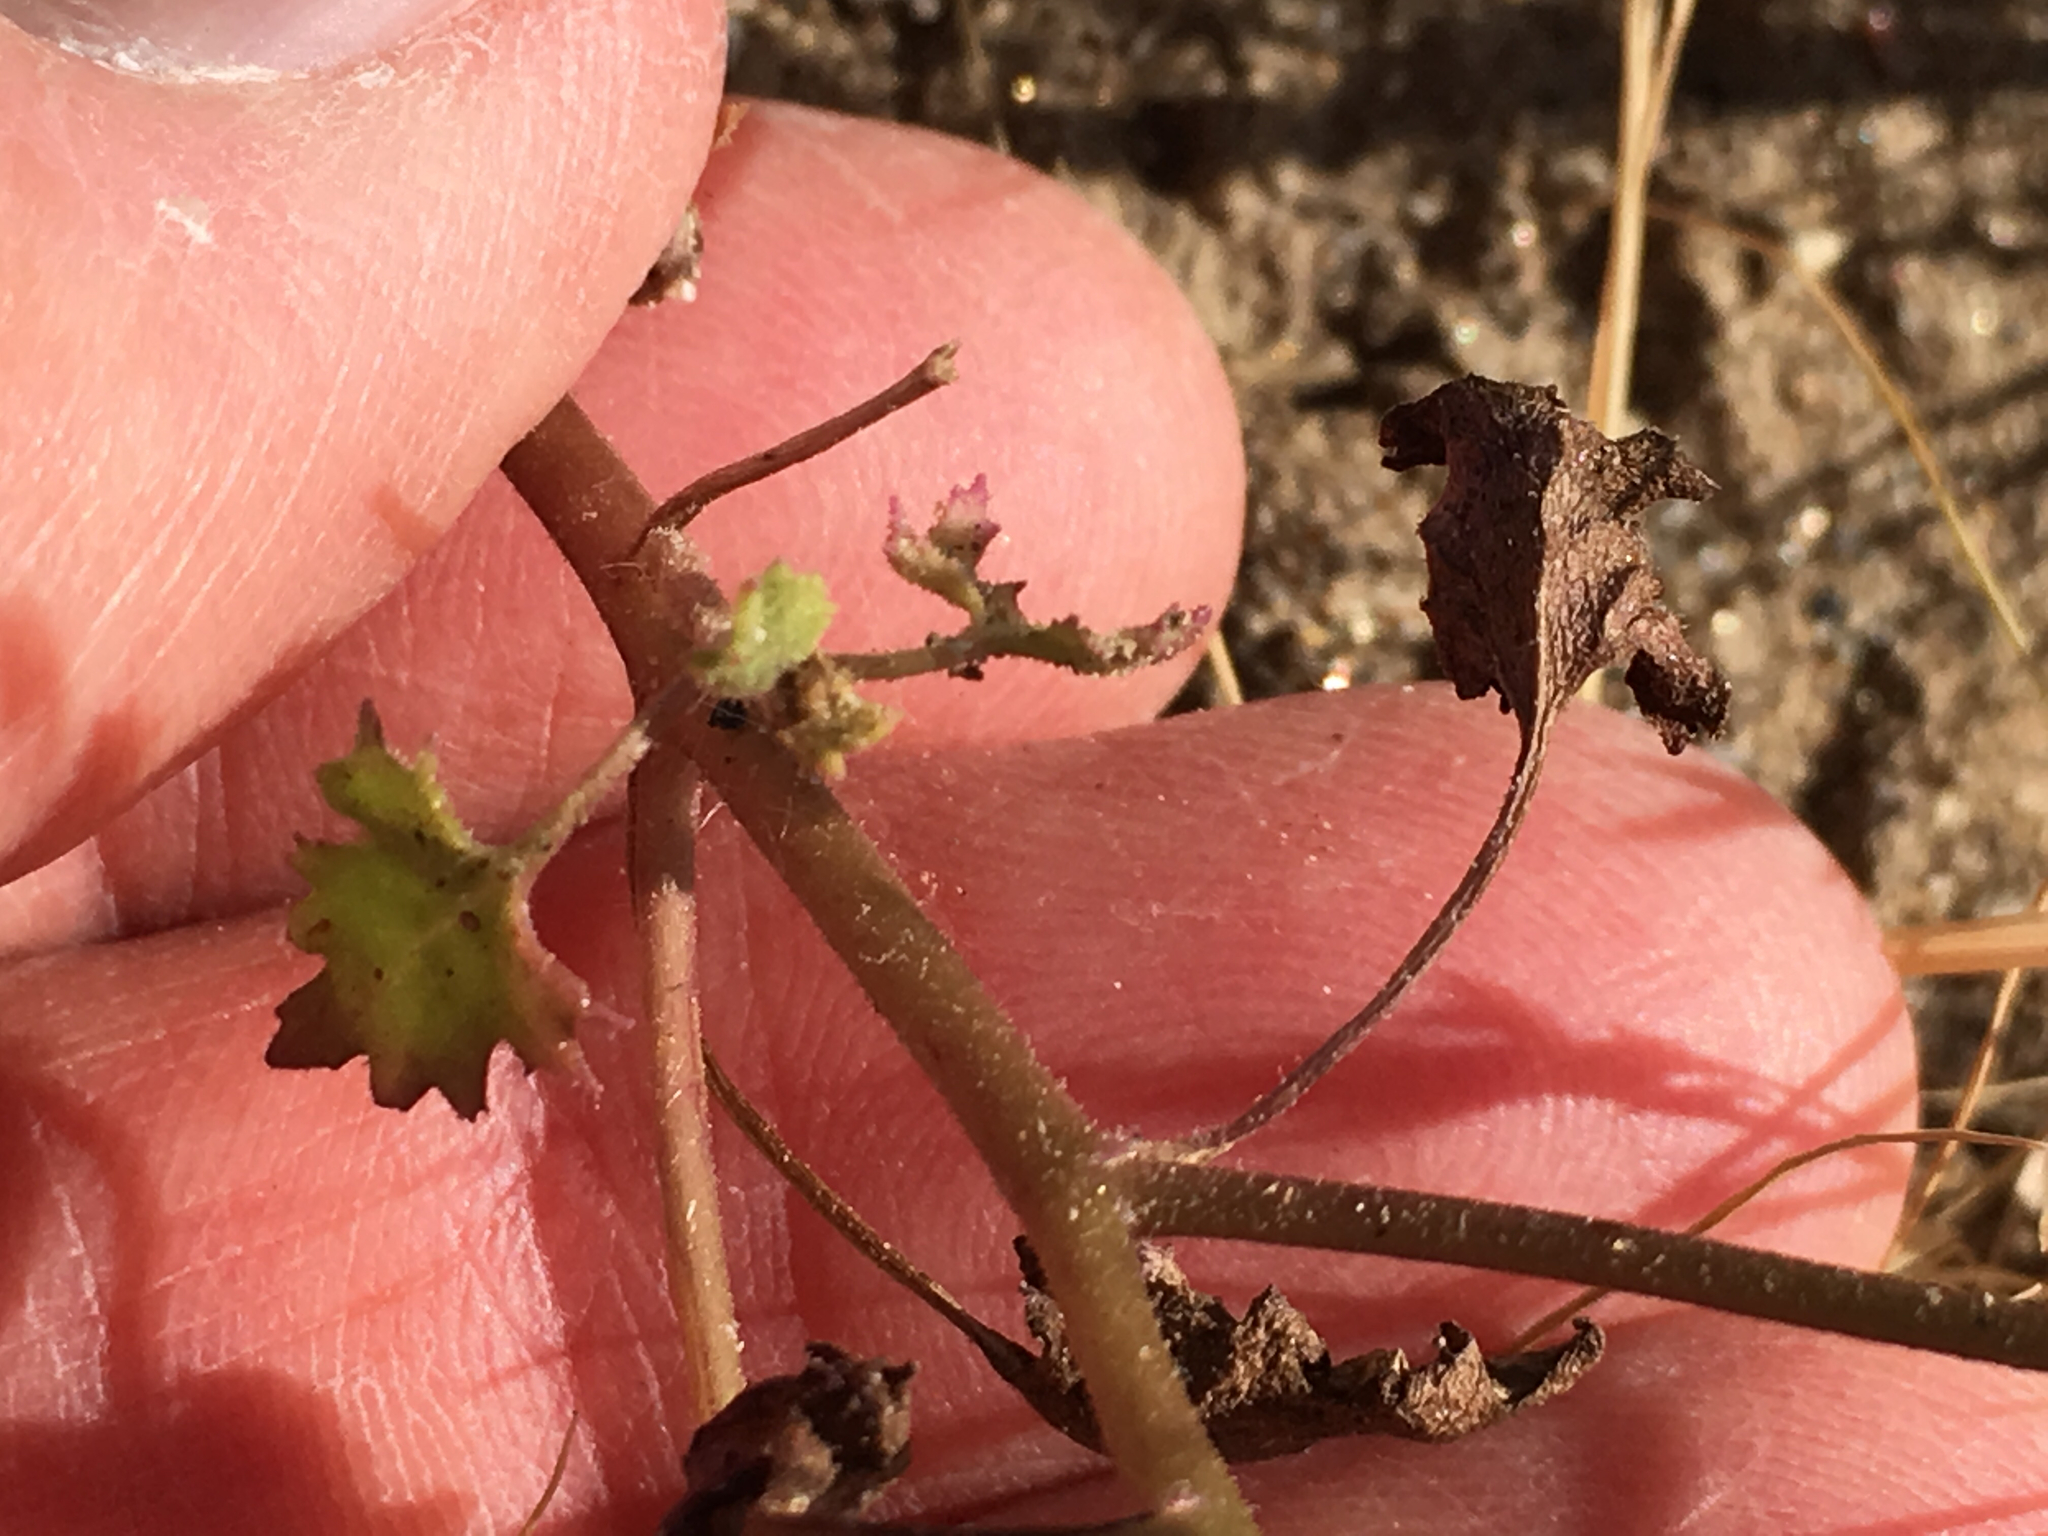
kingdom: Plantae
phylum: Tracheophyta
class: Magnoliopsida
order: Asterales
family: Asteraceae
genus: Laphamia
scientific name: Laphamia emoryi
